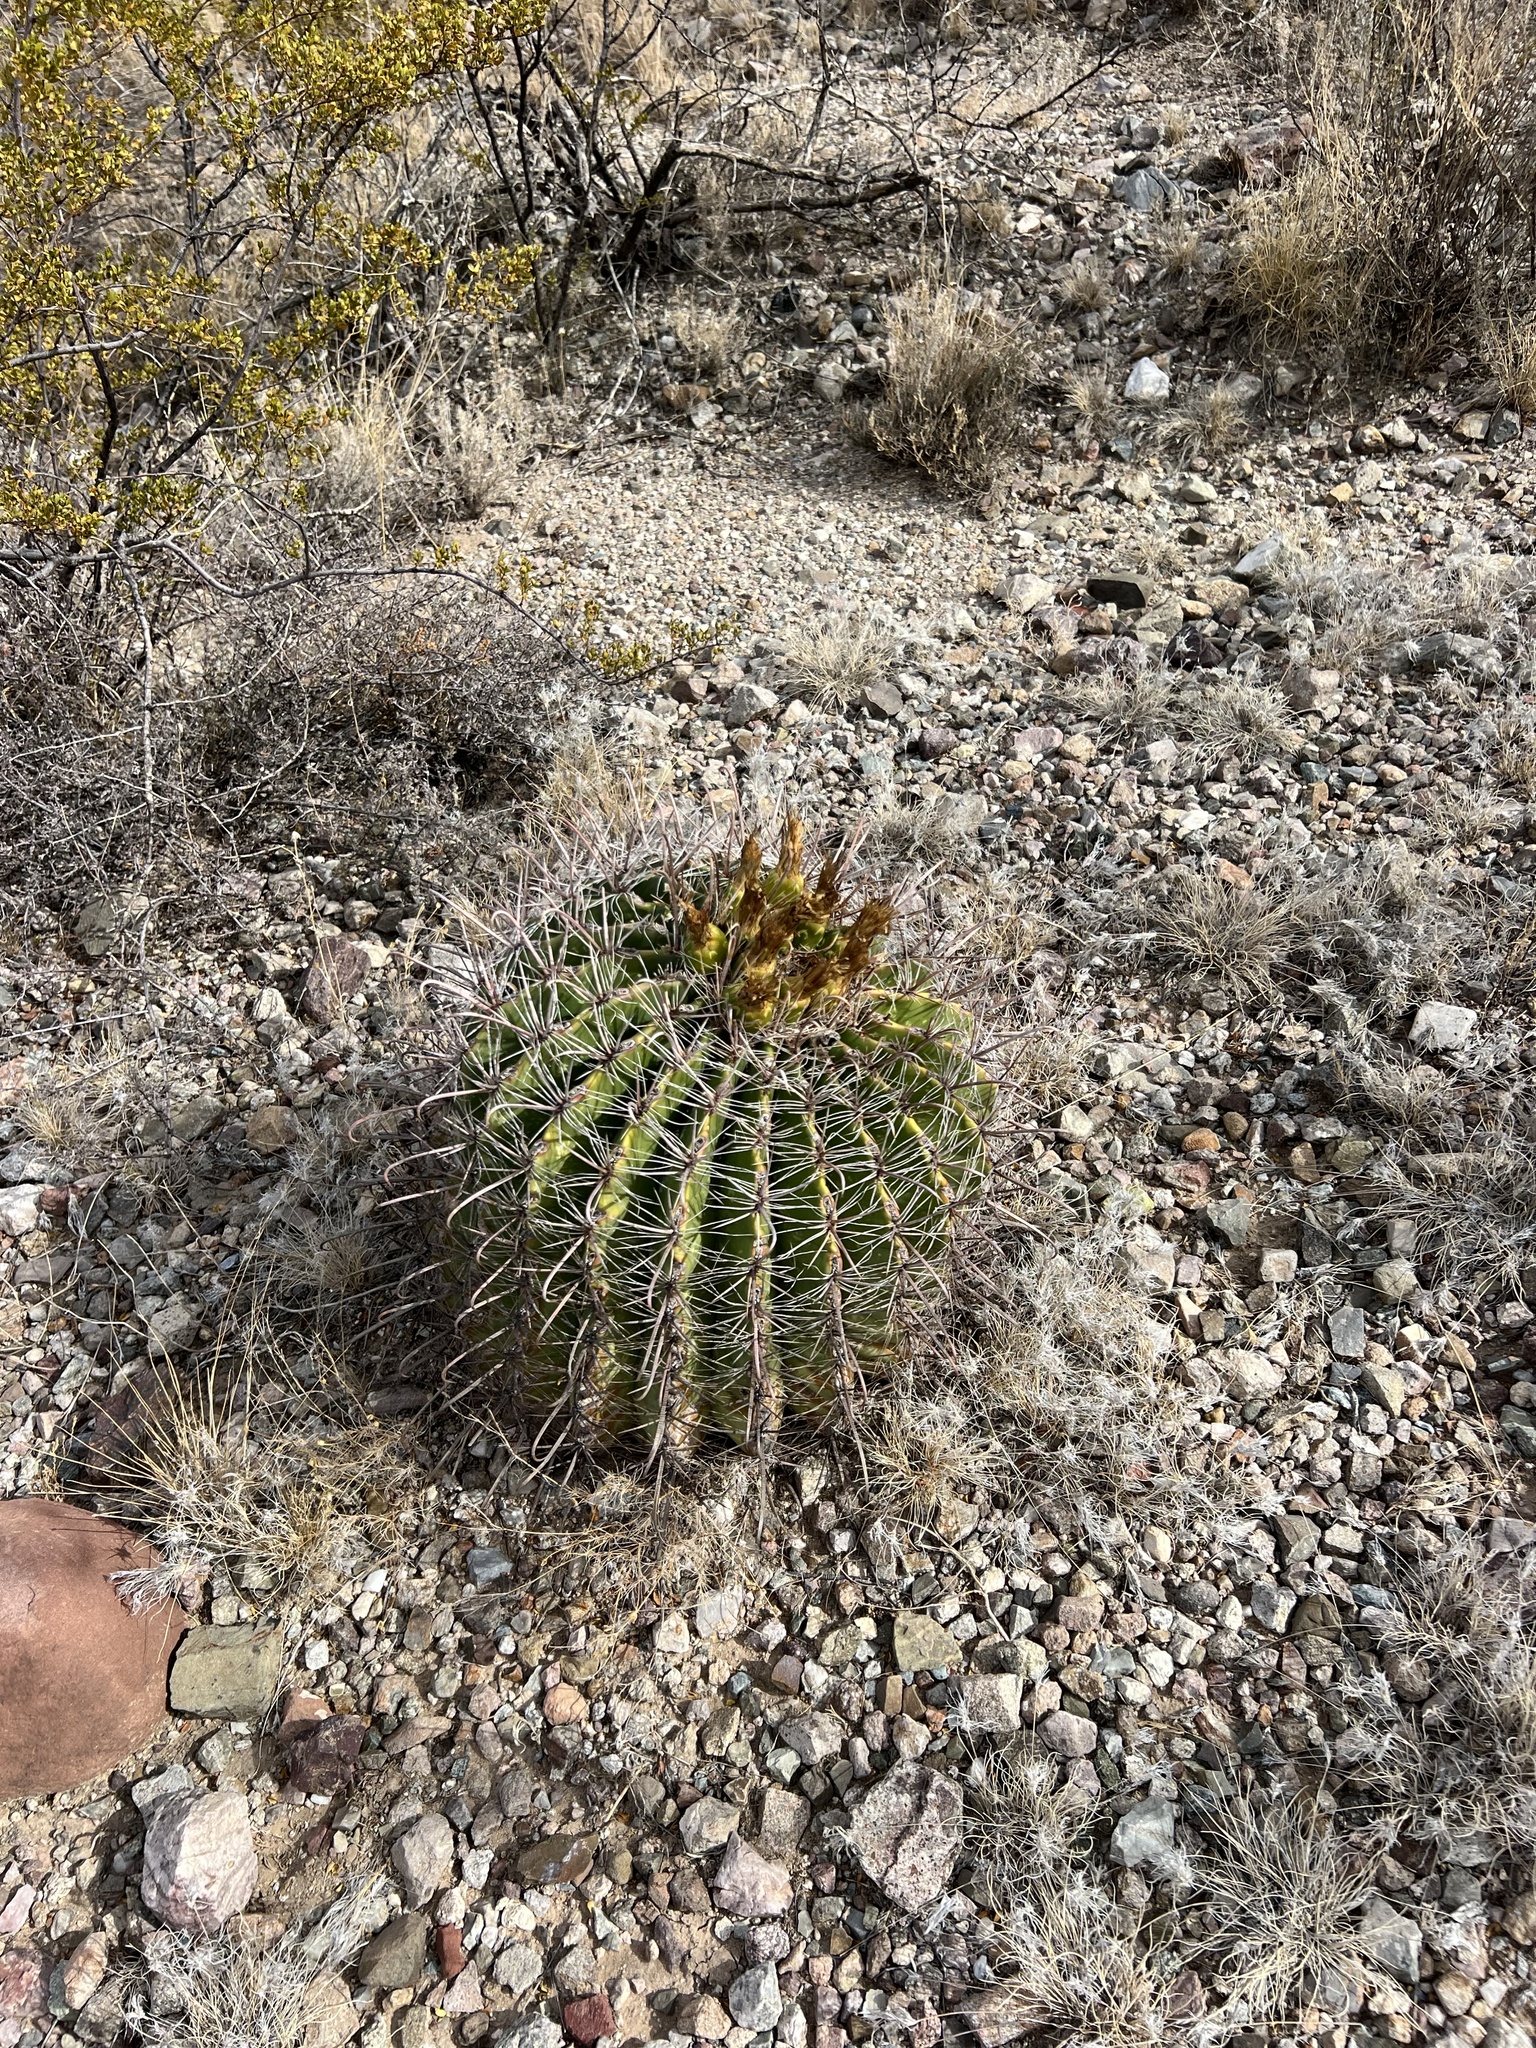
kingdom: Plantae
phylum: Tracheophyta
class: Magnoliopsida
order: Caryophyllales
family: Cactaceae
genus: Ferocactus
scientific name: Ferocactus wislizeni
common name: Candy barrel cactus
